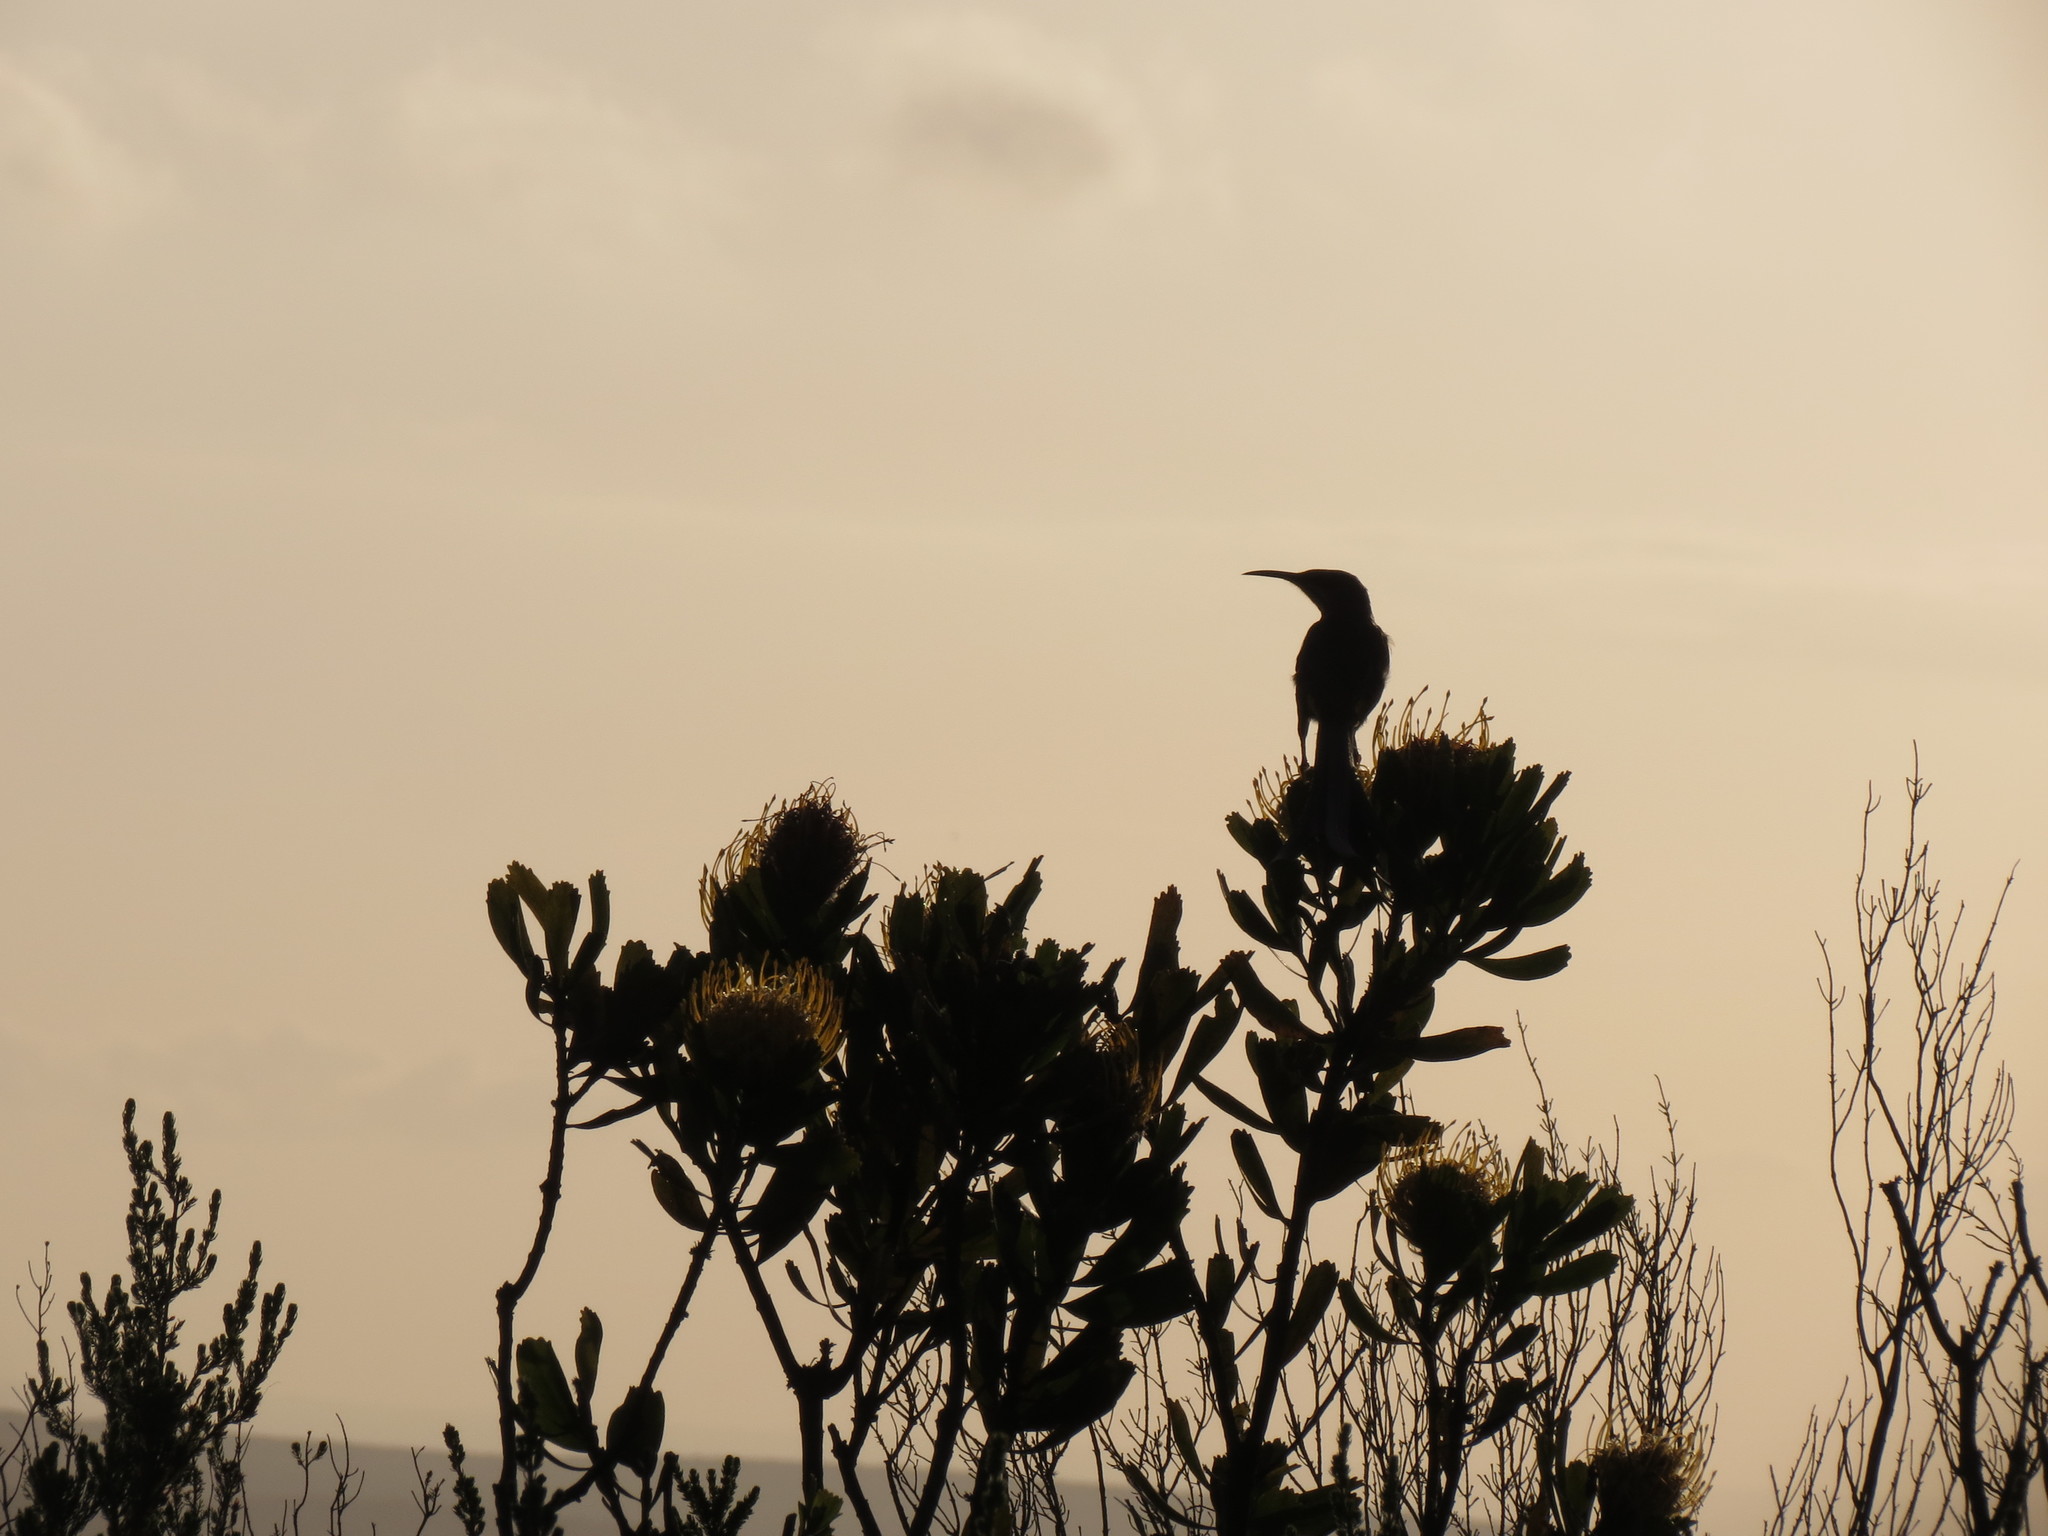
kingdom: Animalia
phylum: Chordata
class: Aves
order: Passeriformes
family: Promeropidae
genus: Promerops
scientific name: Promerops cafer
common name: Cape sugarbird
